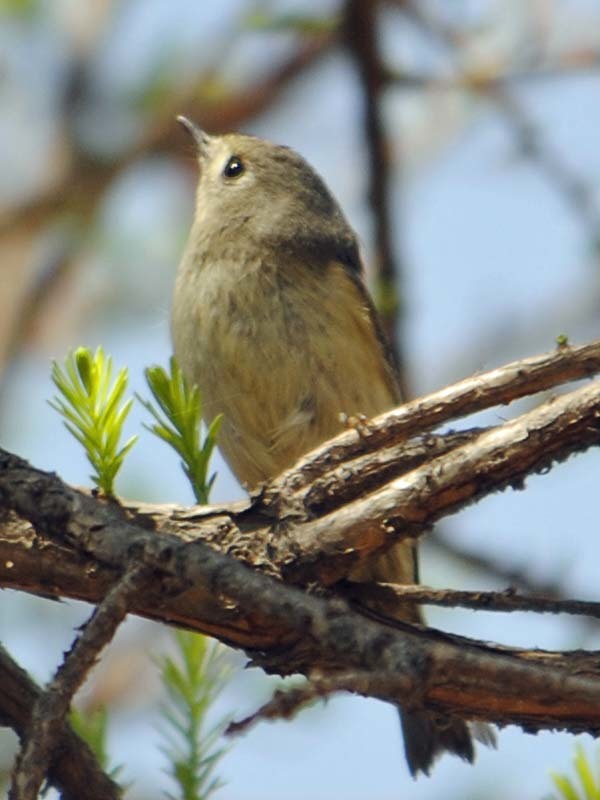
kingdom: Animalia
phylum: Chordata
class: Aves
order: Passeriformes
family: Regulidae
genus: Regulus
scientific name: Regulus calendula
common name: Ruby-crowned kinglet
